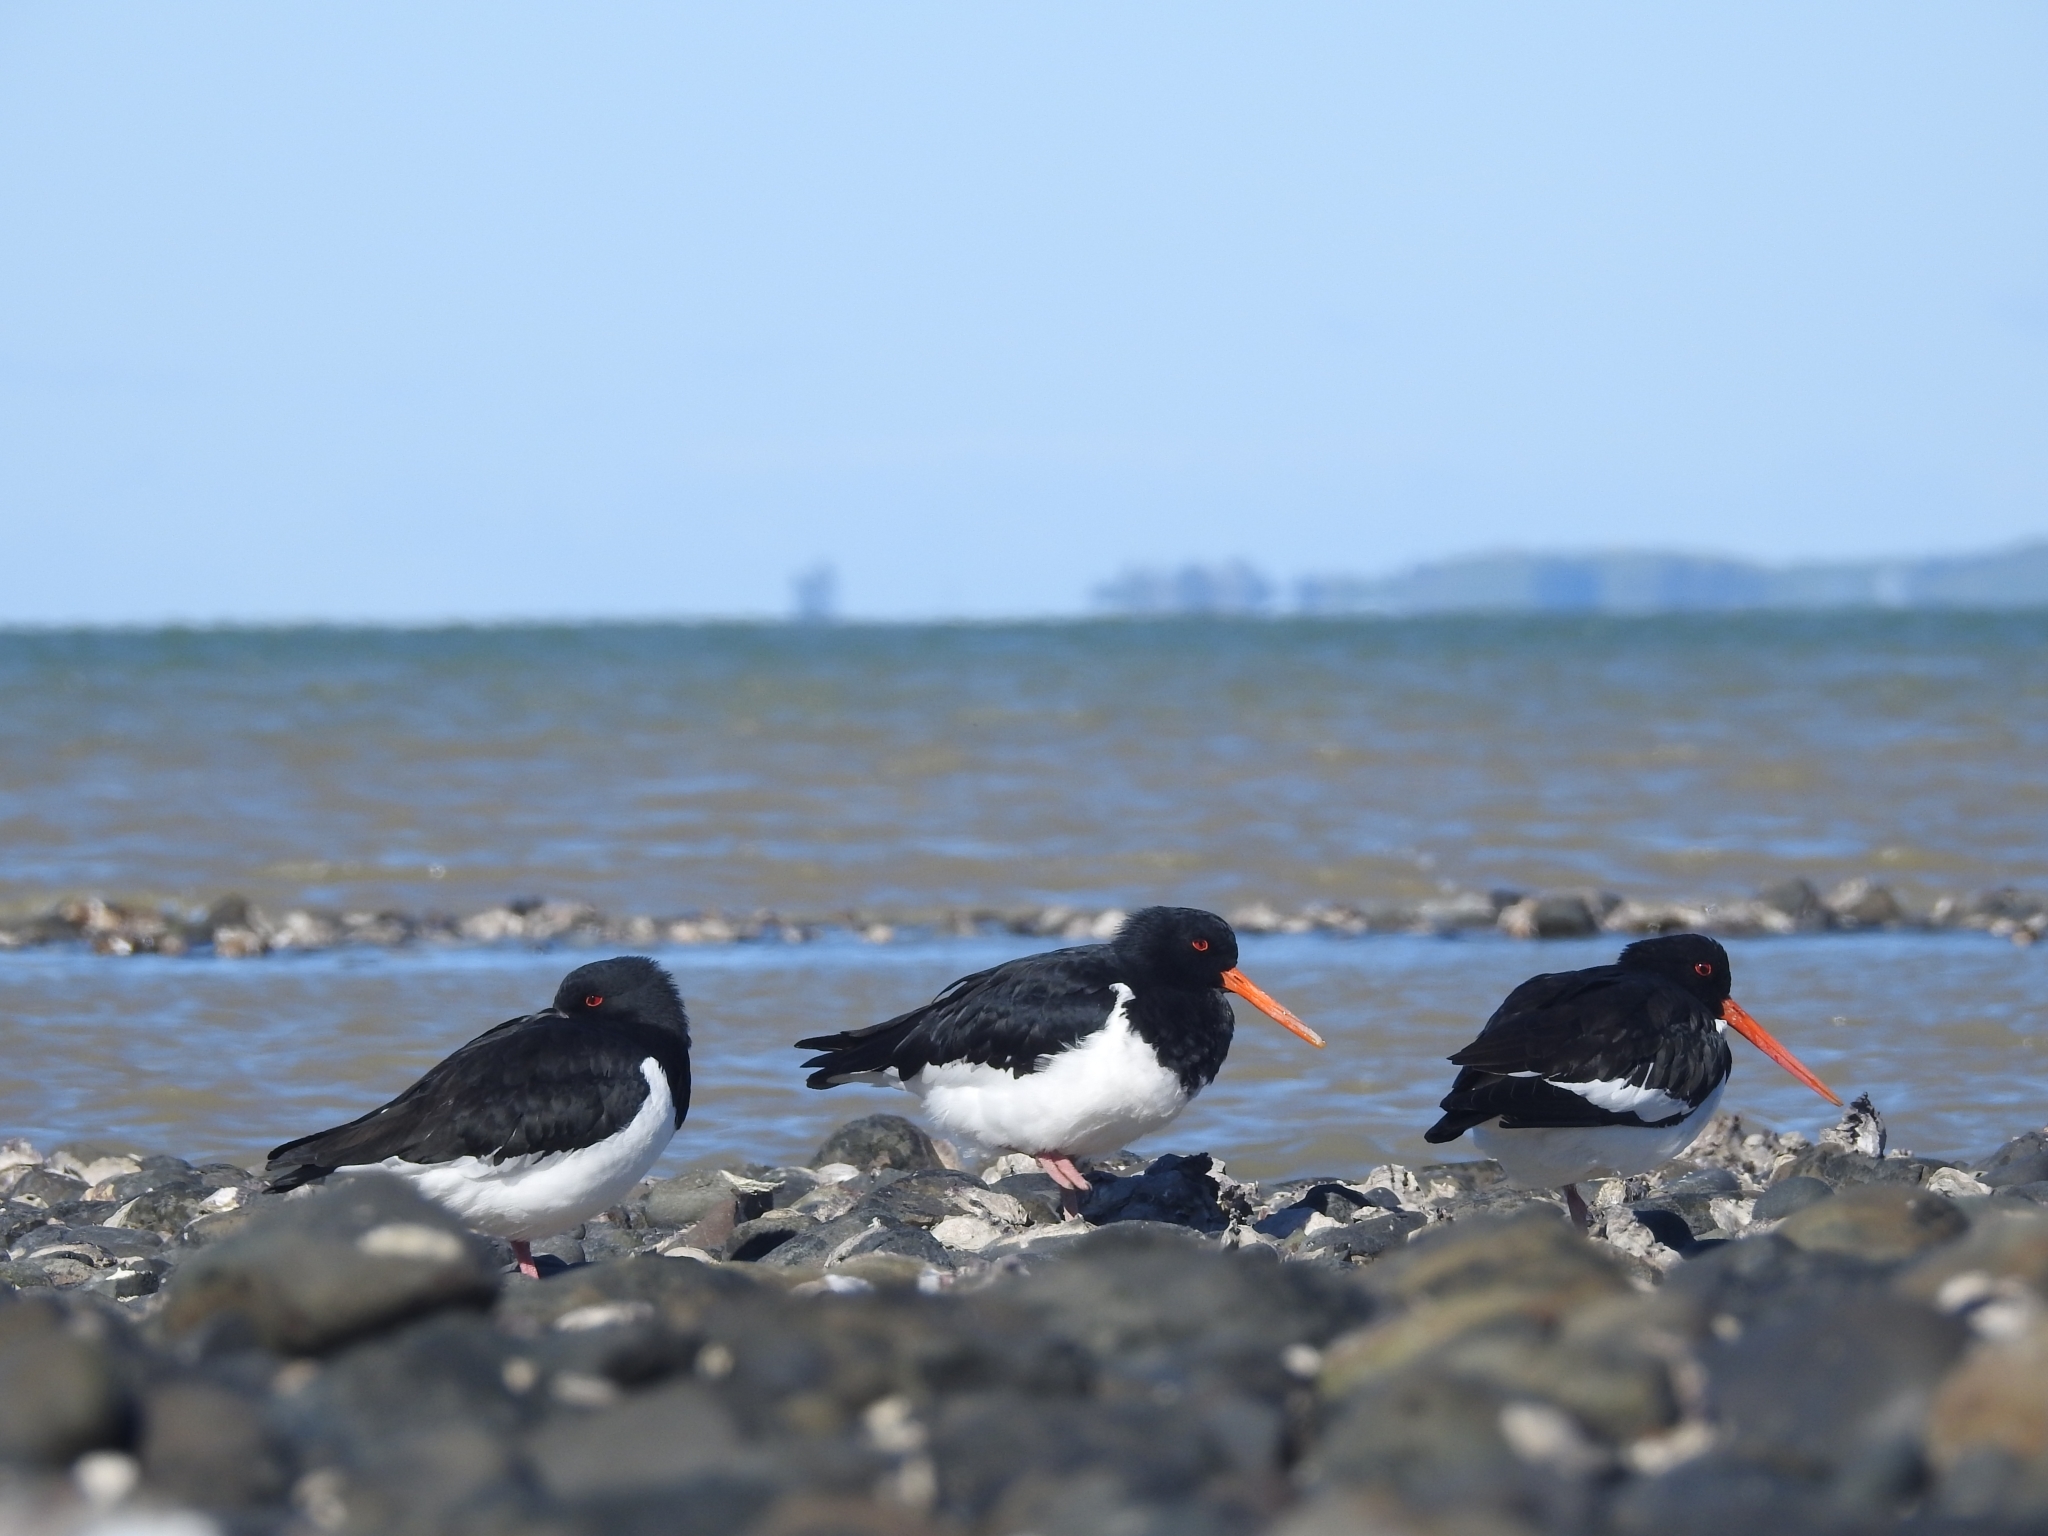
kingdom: Animalia
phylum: Chordata
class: Aves
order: Charadriiformes
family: Haematopodidae
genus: Haematopus
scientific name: Haematopus finschi
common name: South island oystercatcher
